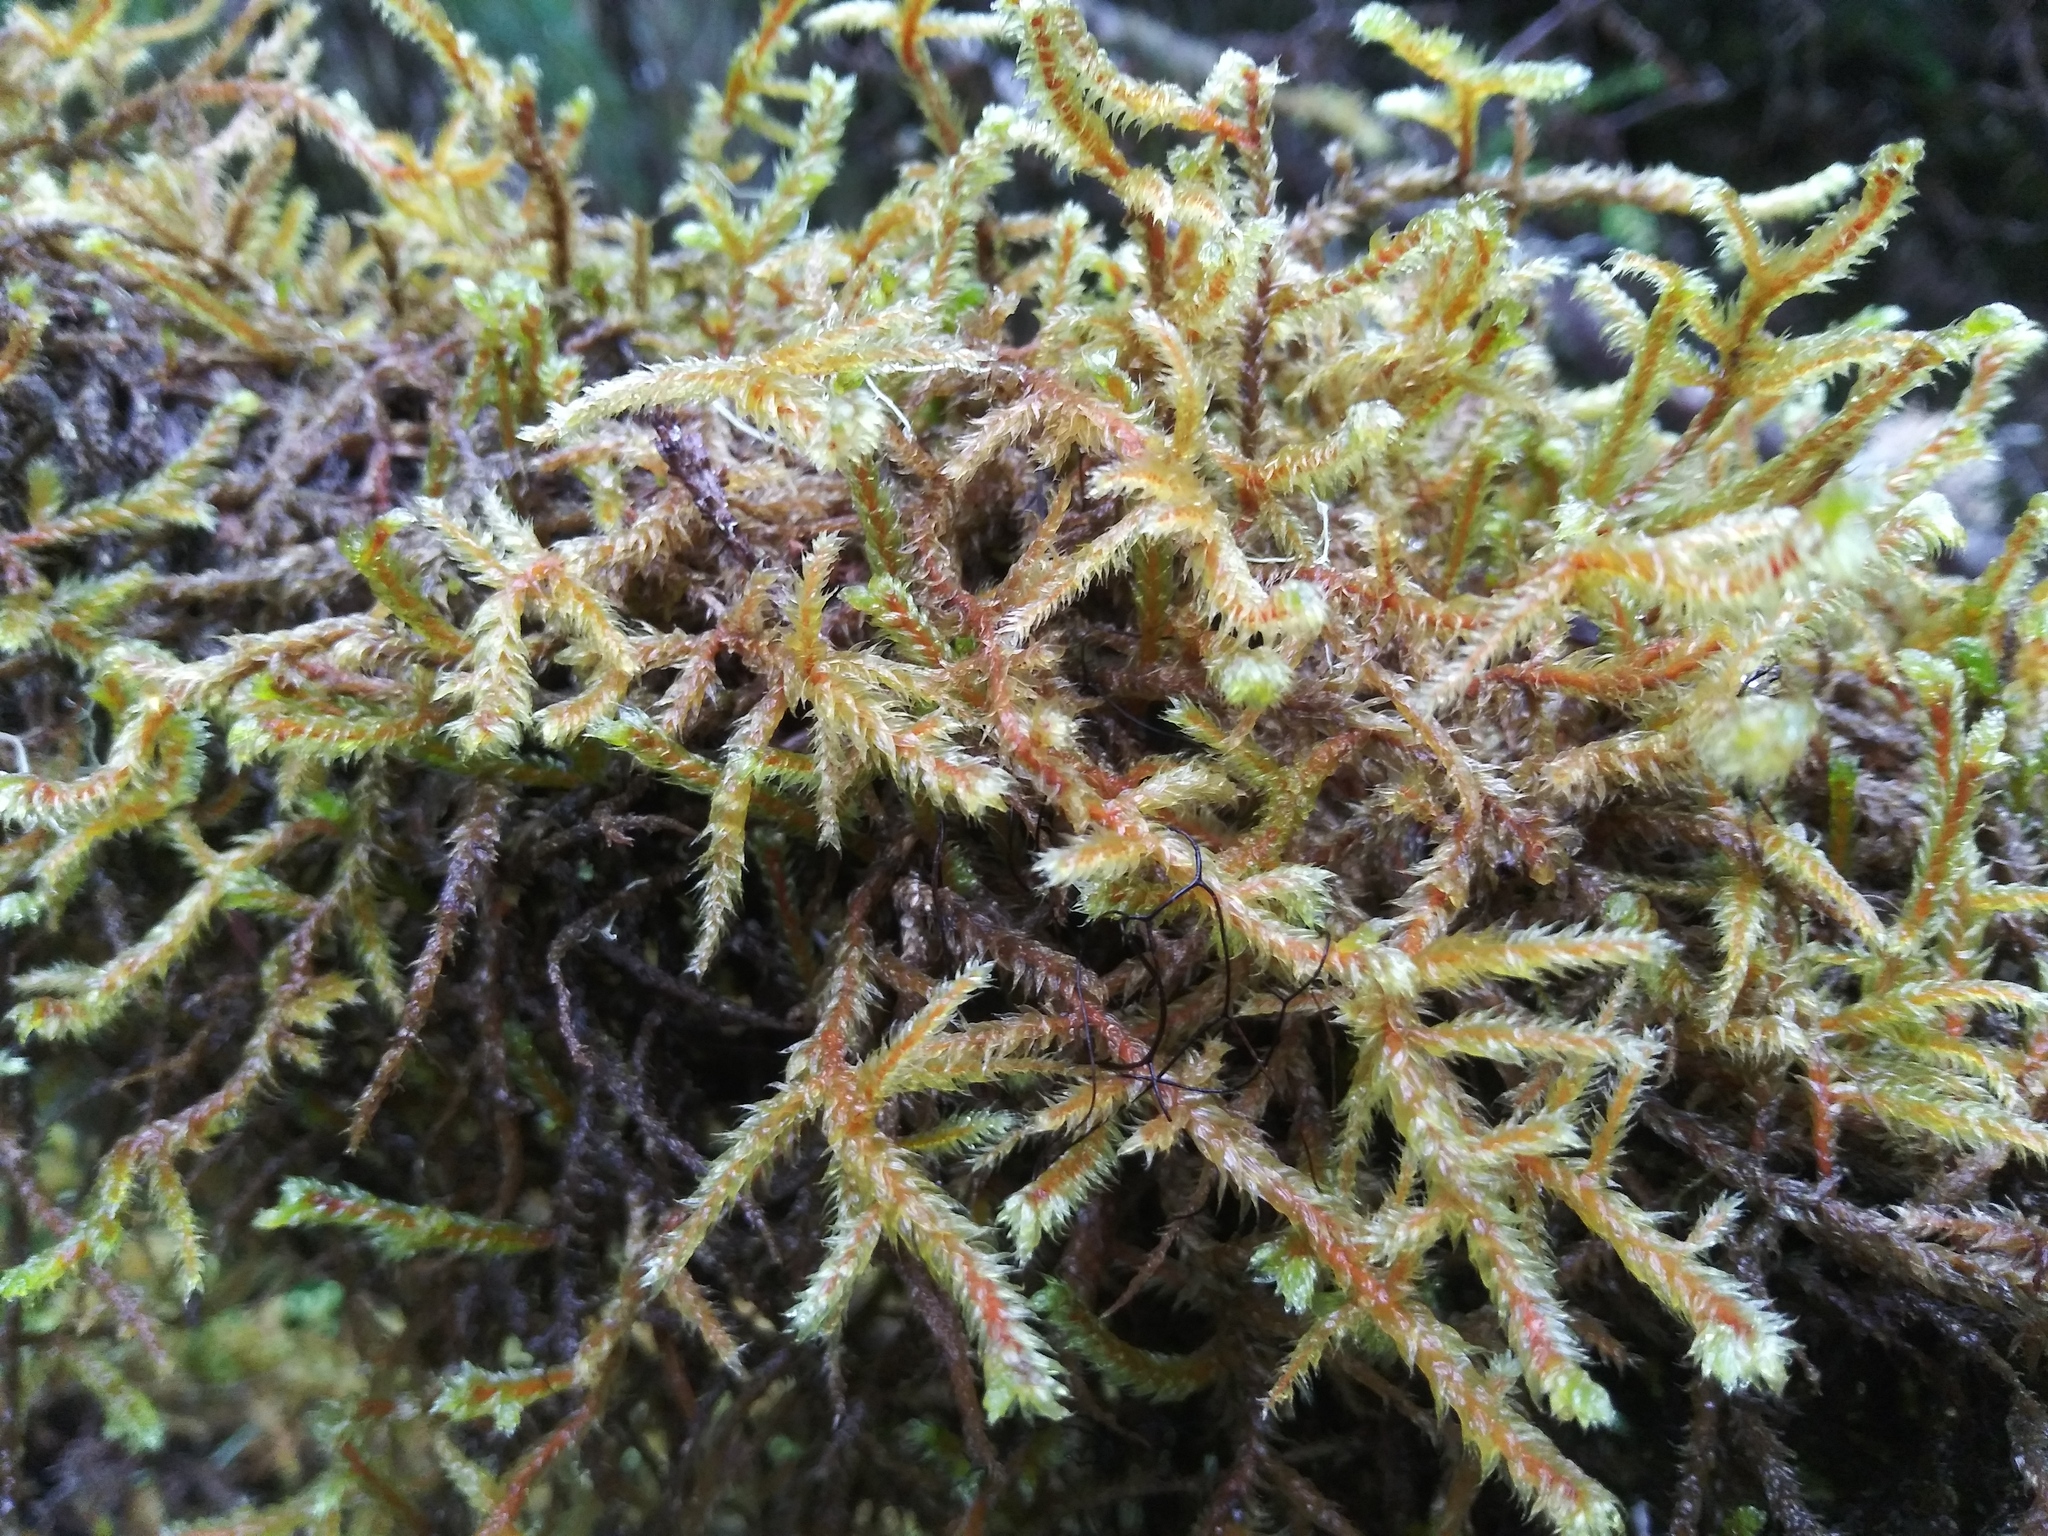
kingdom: Plantae
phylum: Bryophyta
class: Bryopsida
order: Hypnales
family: Antitrichiaceae
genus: Antitrichia
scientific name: Antitrichia curtipendula
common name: Pendulous wing-moss
